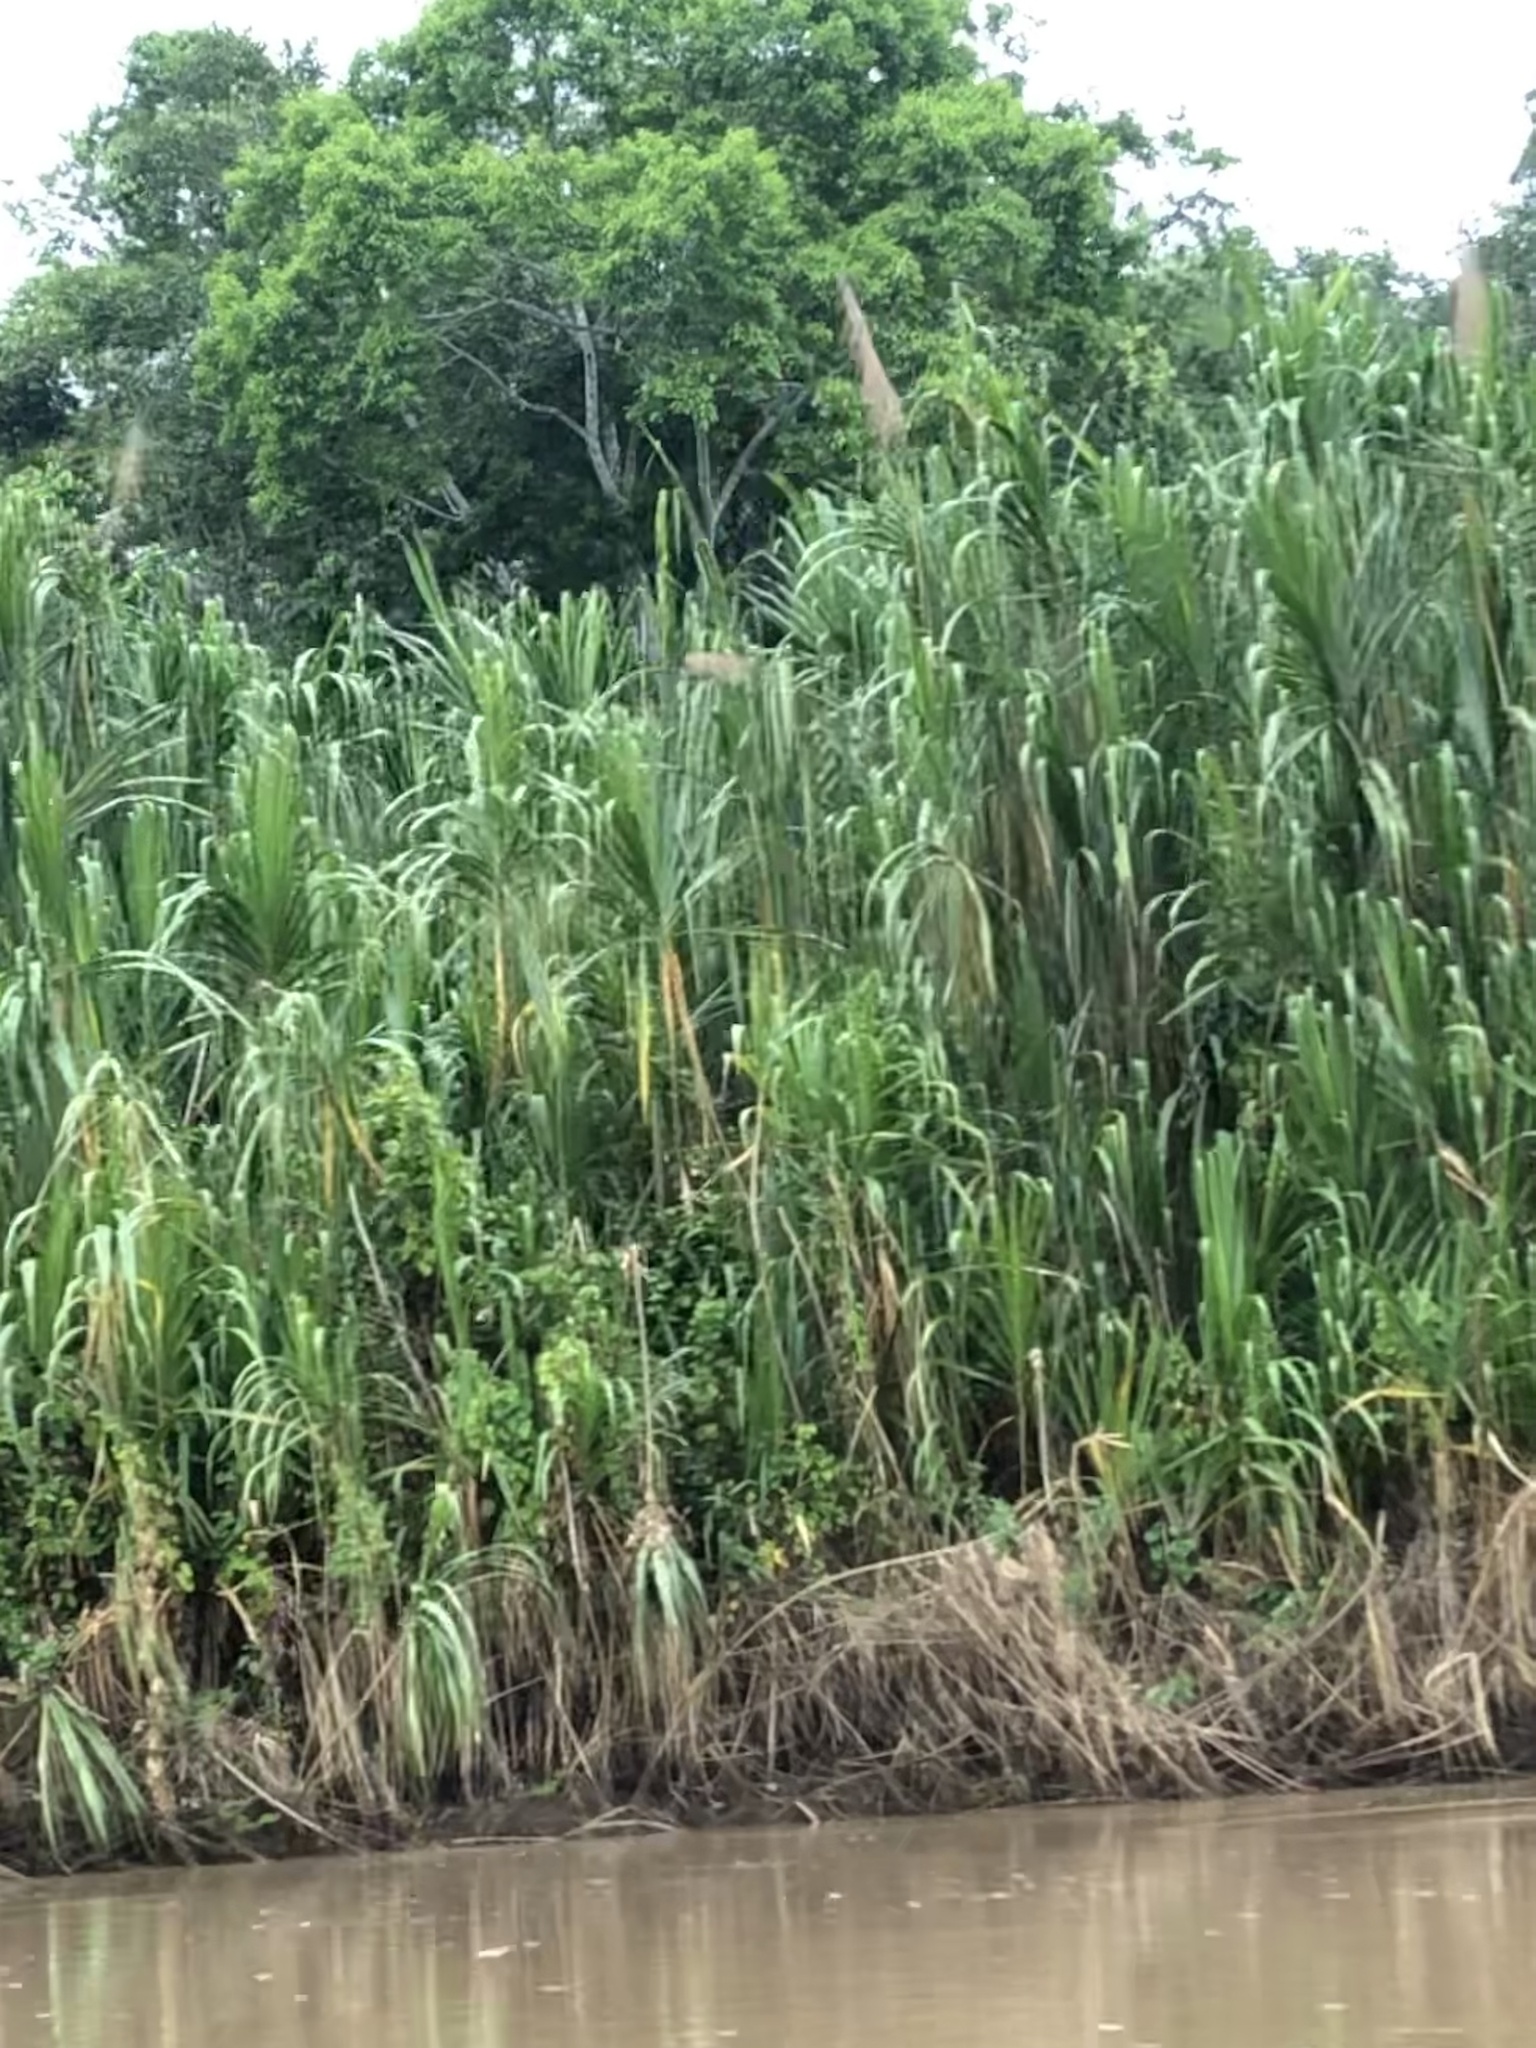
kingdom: Plantae
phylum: Tracheophyta
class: Liliopsida
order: Poales
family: Poaceae
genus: Gynerium
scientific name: Gynerium sagittatum
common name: Wild cane
